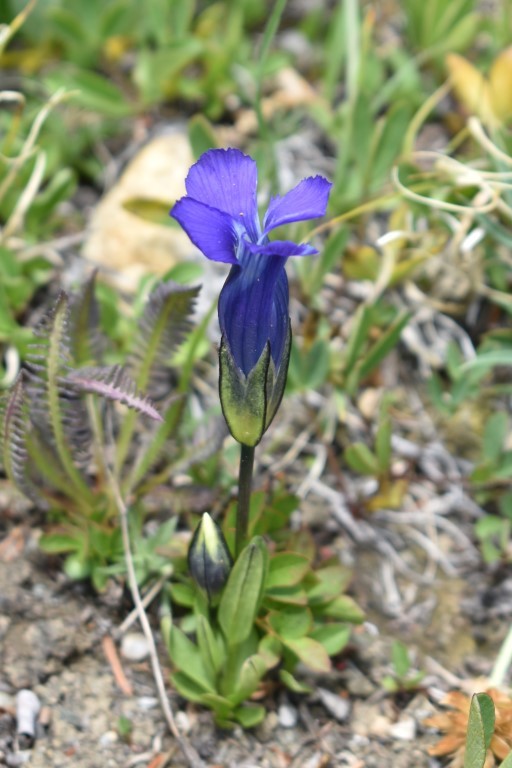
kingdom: Plantae
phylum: Tracheophyta
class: Magnoliopsida
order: Gentianales
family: Gentianaceae
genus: Gentianopsis
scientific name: Gentianopsis thermalis
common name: Rocky mountain fringed-gentian
